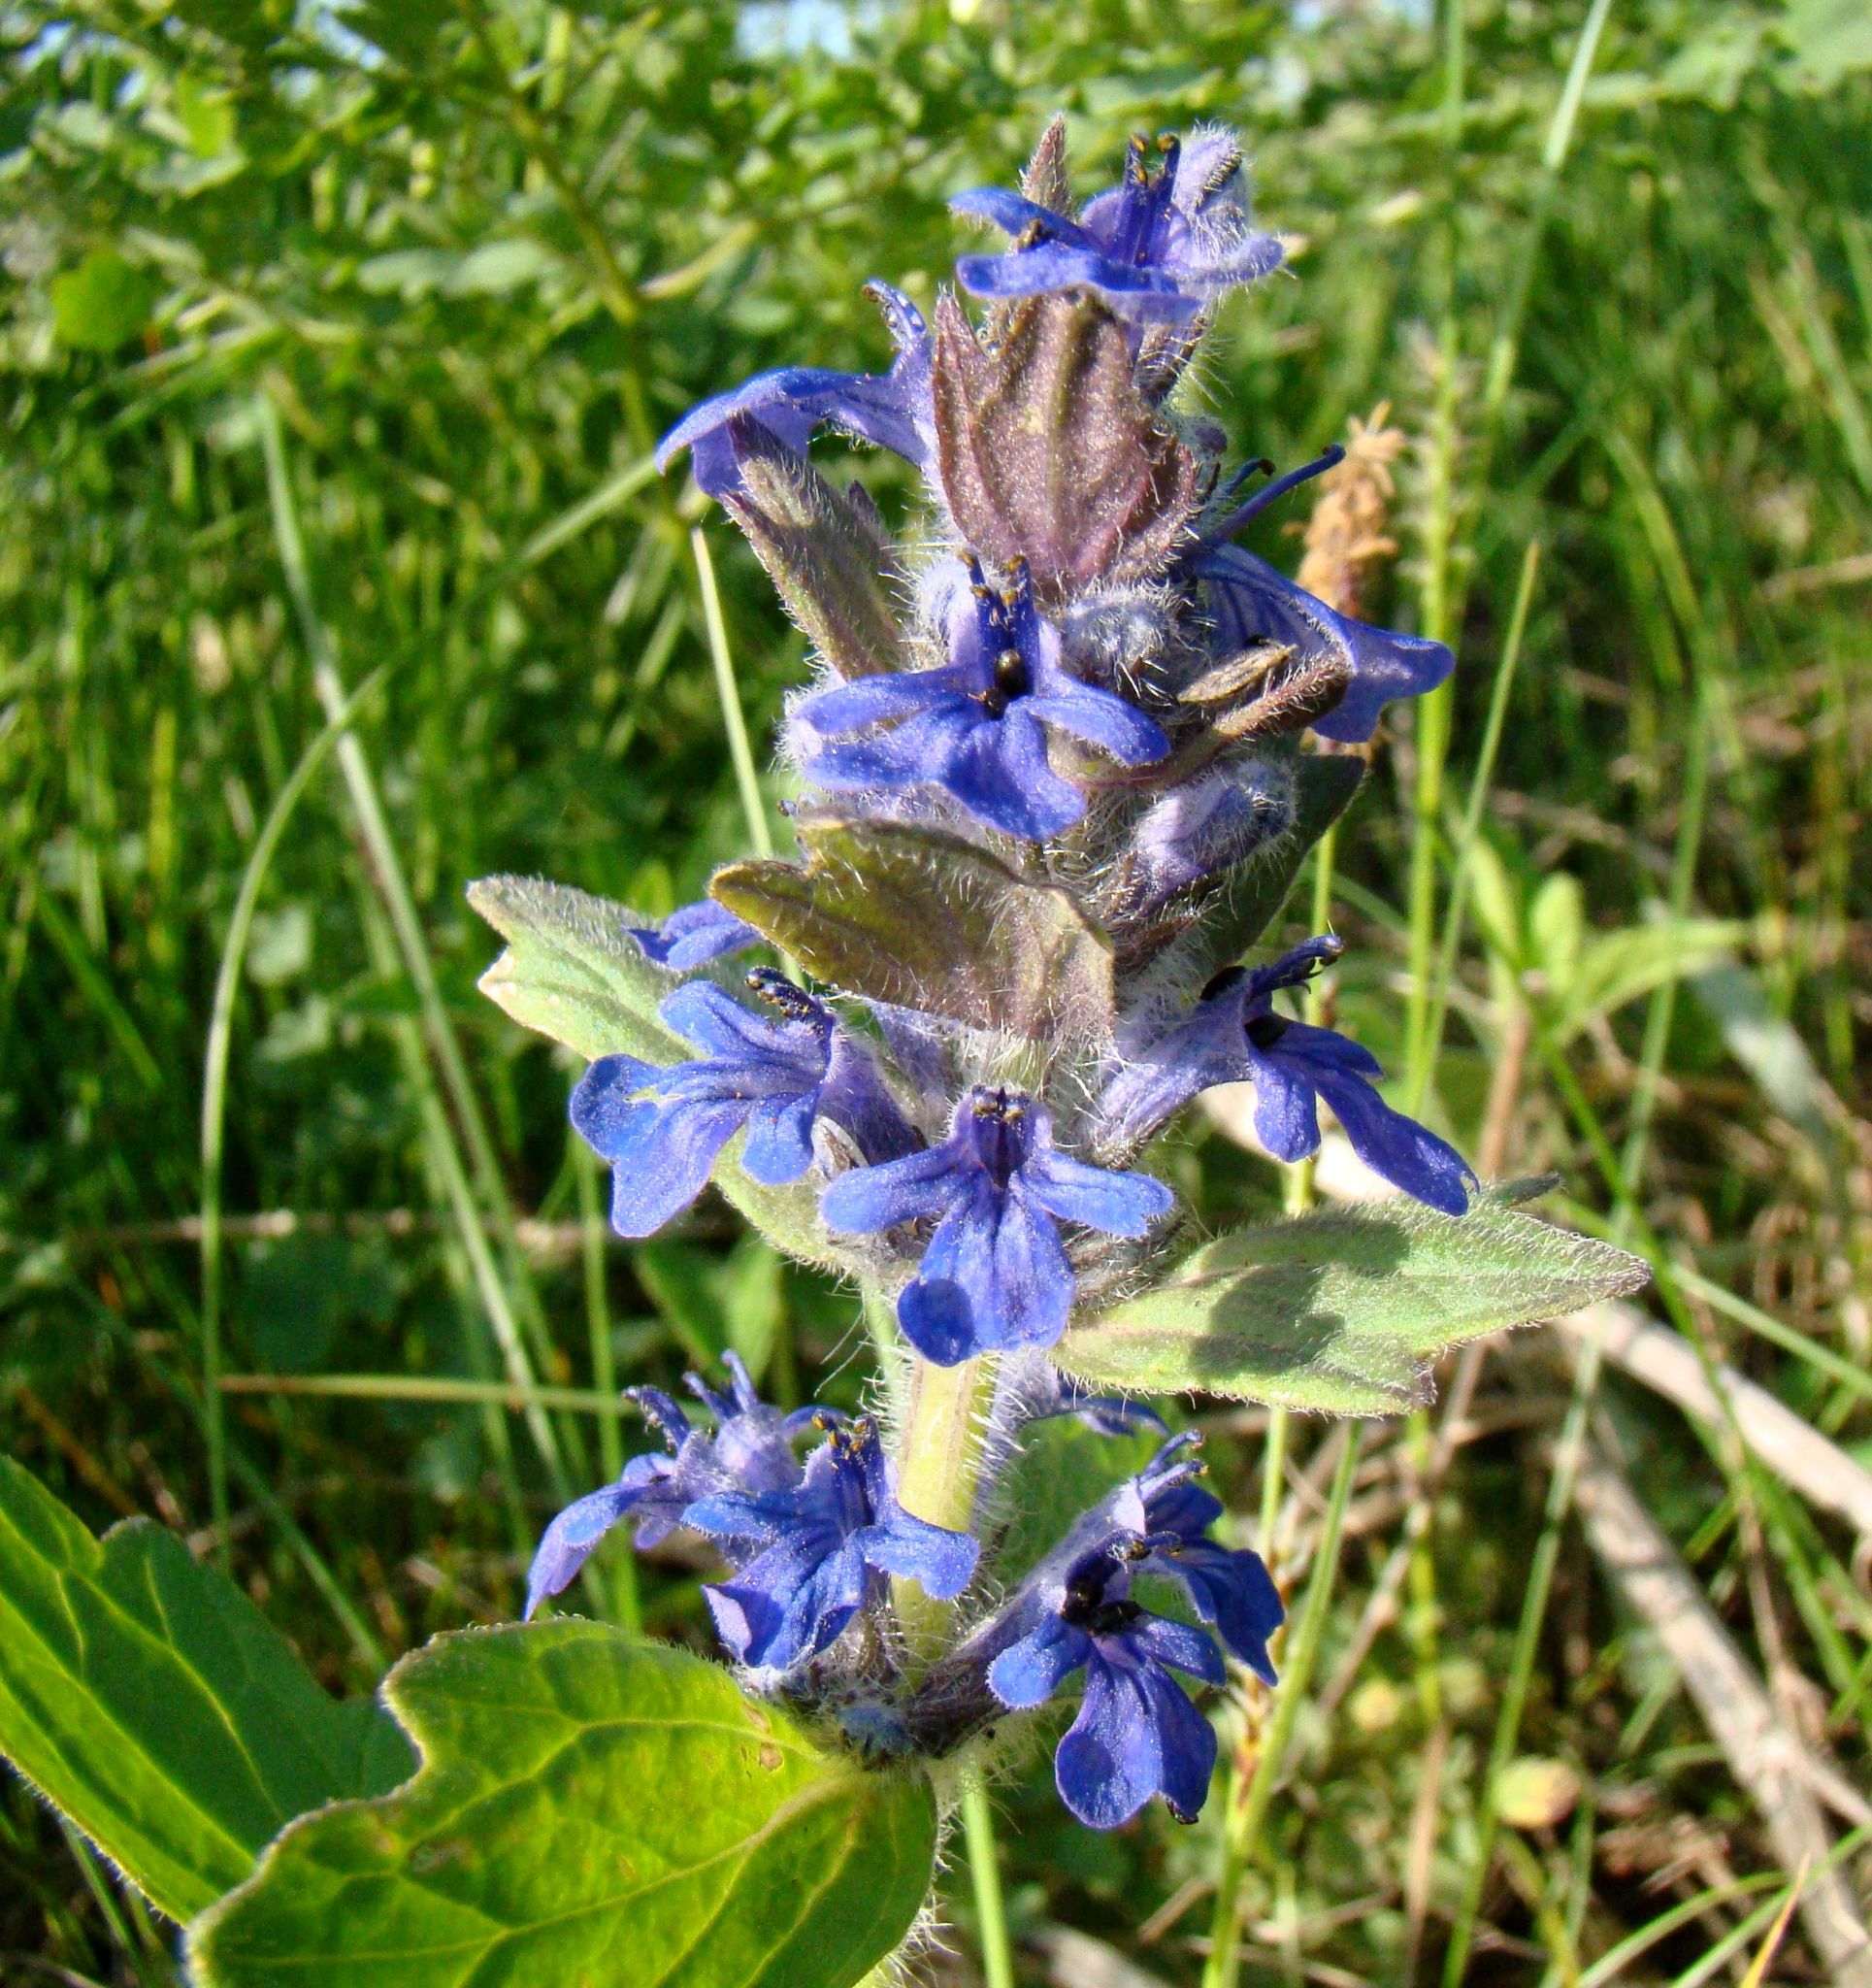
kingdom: Plantae
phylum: Tracheophyta
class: Magnoliopsida
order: Lamiales
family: Lamiaceae
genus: Ajuga
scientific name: Ajuga genevensis
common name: Blue bugle
